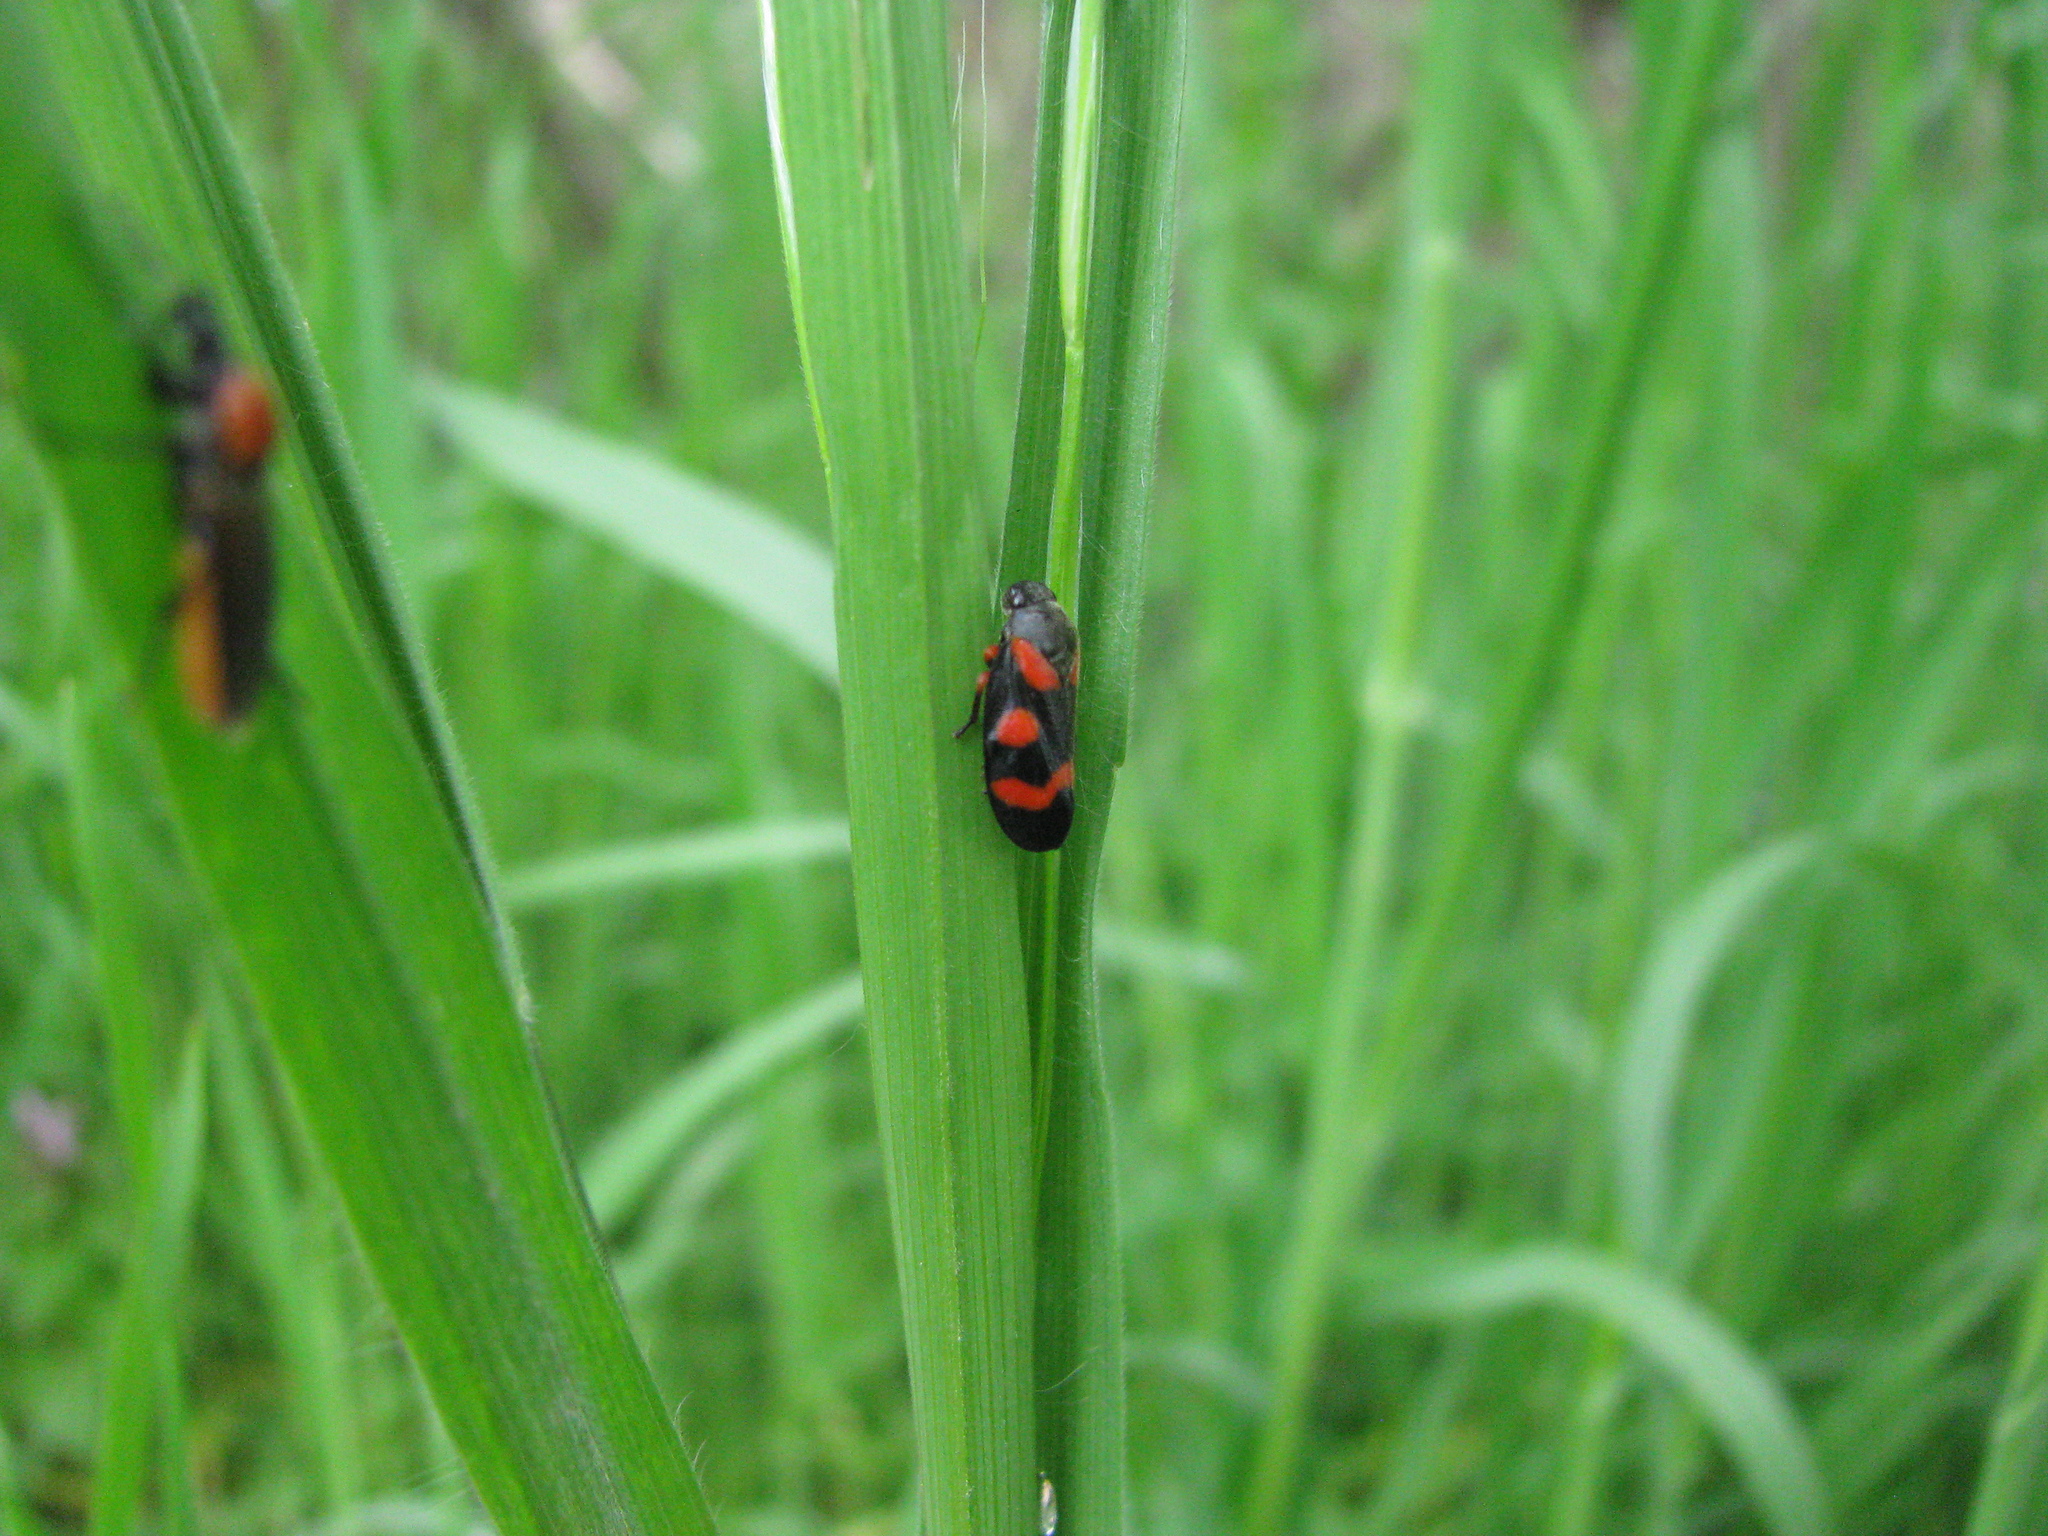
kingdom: Animalia
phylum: Arthropoda
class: Insecta
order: Hemiptera
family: Cercopidae
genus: Cercopis
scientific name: Cercopis intermedia
